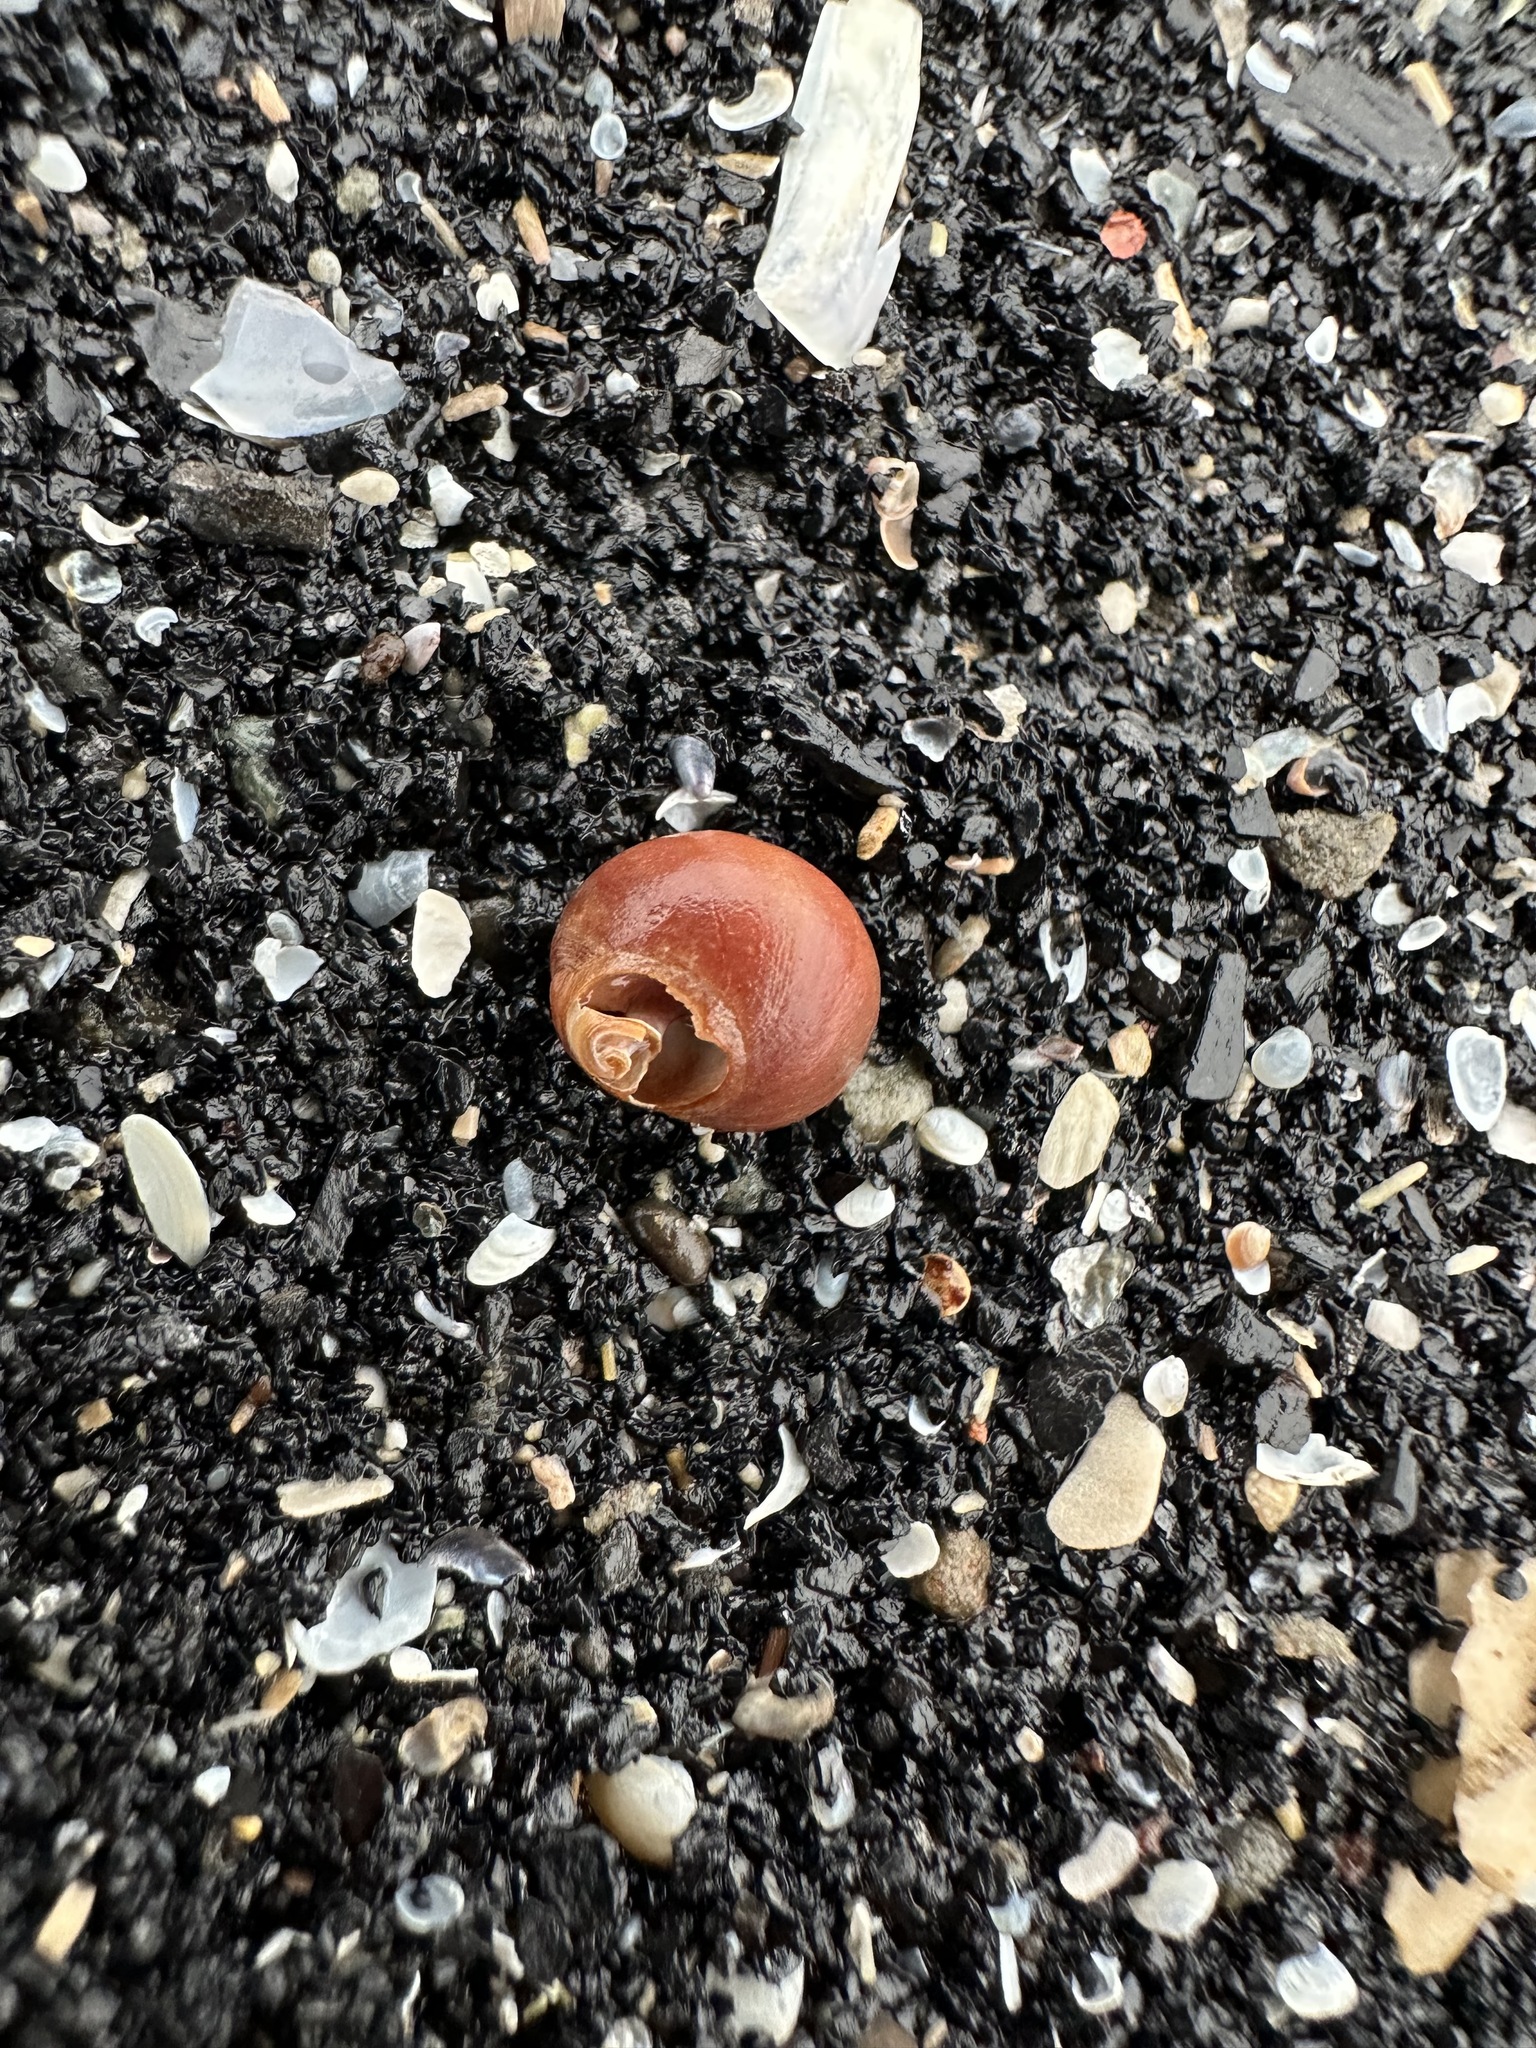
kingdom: Animalia
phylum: Mollusca
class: Gastropoda
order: Littorinimorpha
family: Littorinidae
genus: Littorina
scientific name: Littorina obtusata
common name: Flat periwinkle
